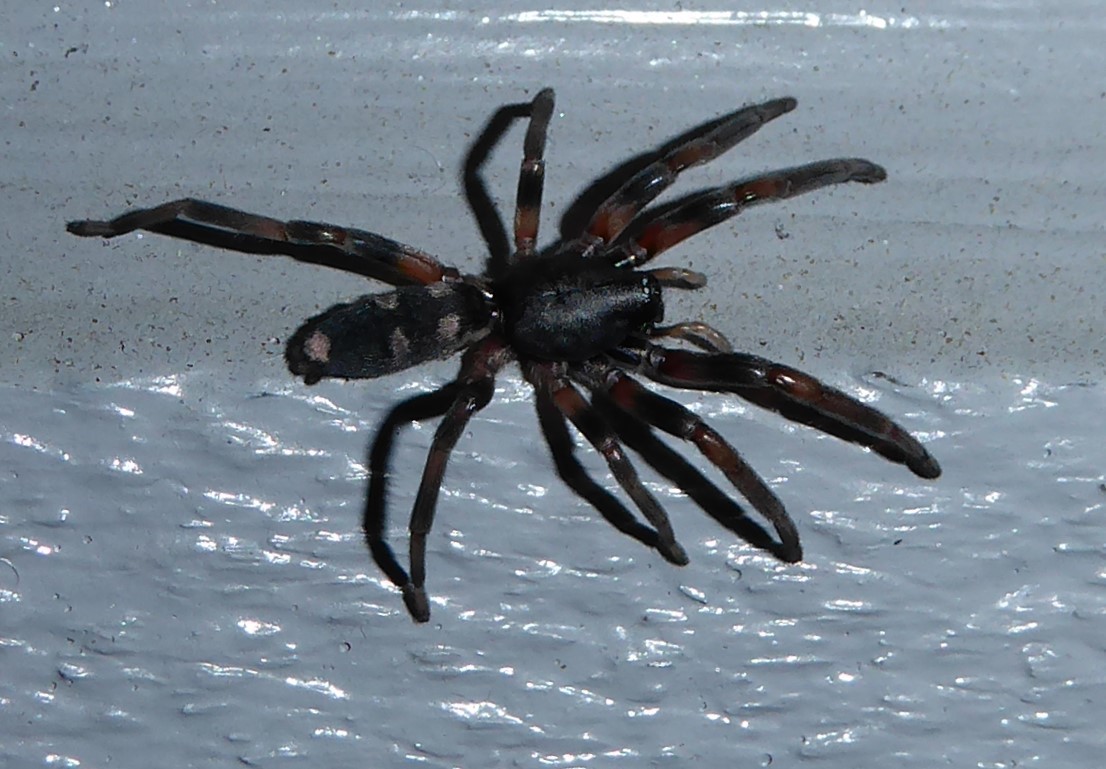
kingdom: Animalia
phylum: Arthropoda
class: Arachnida
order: Araneae
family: Lamponidae
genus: Lampona
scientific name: Lampona cylindrata
